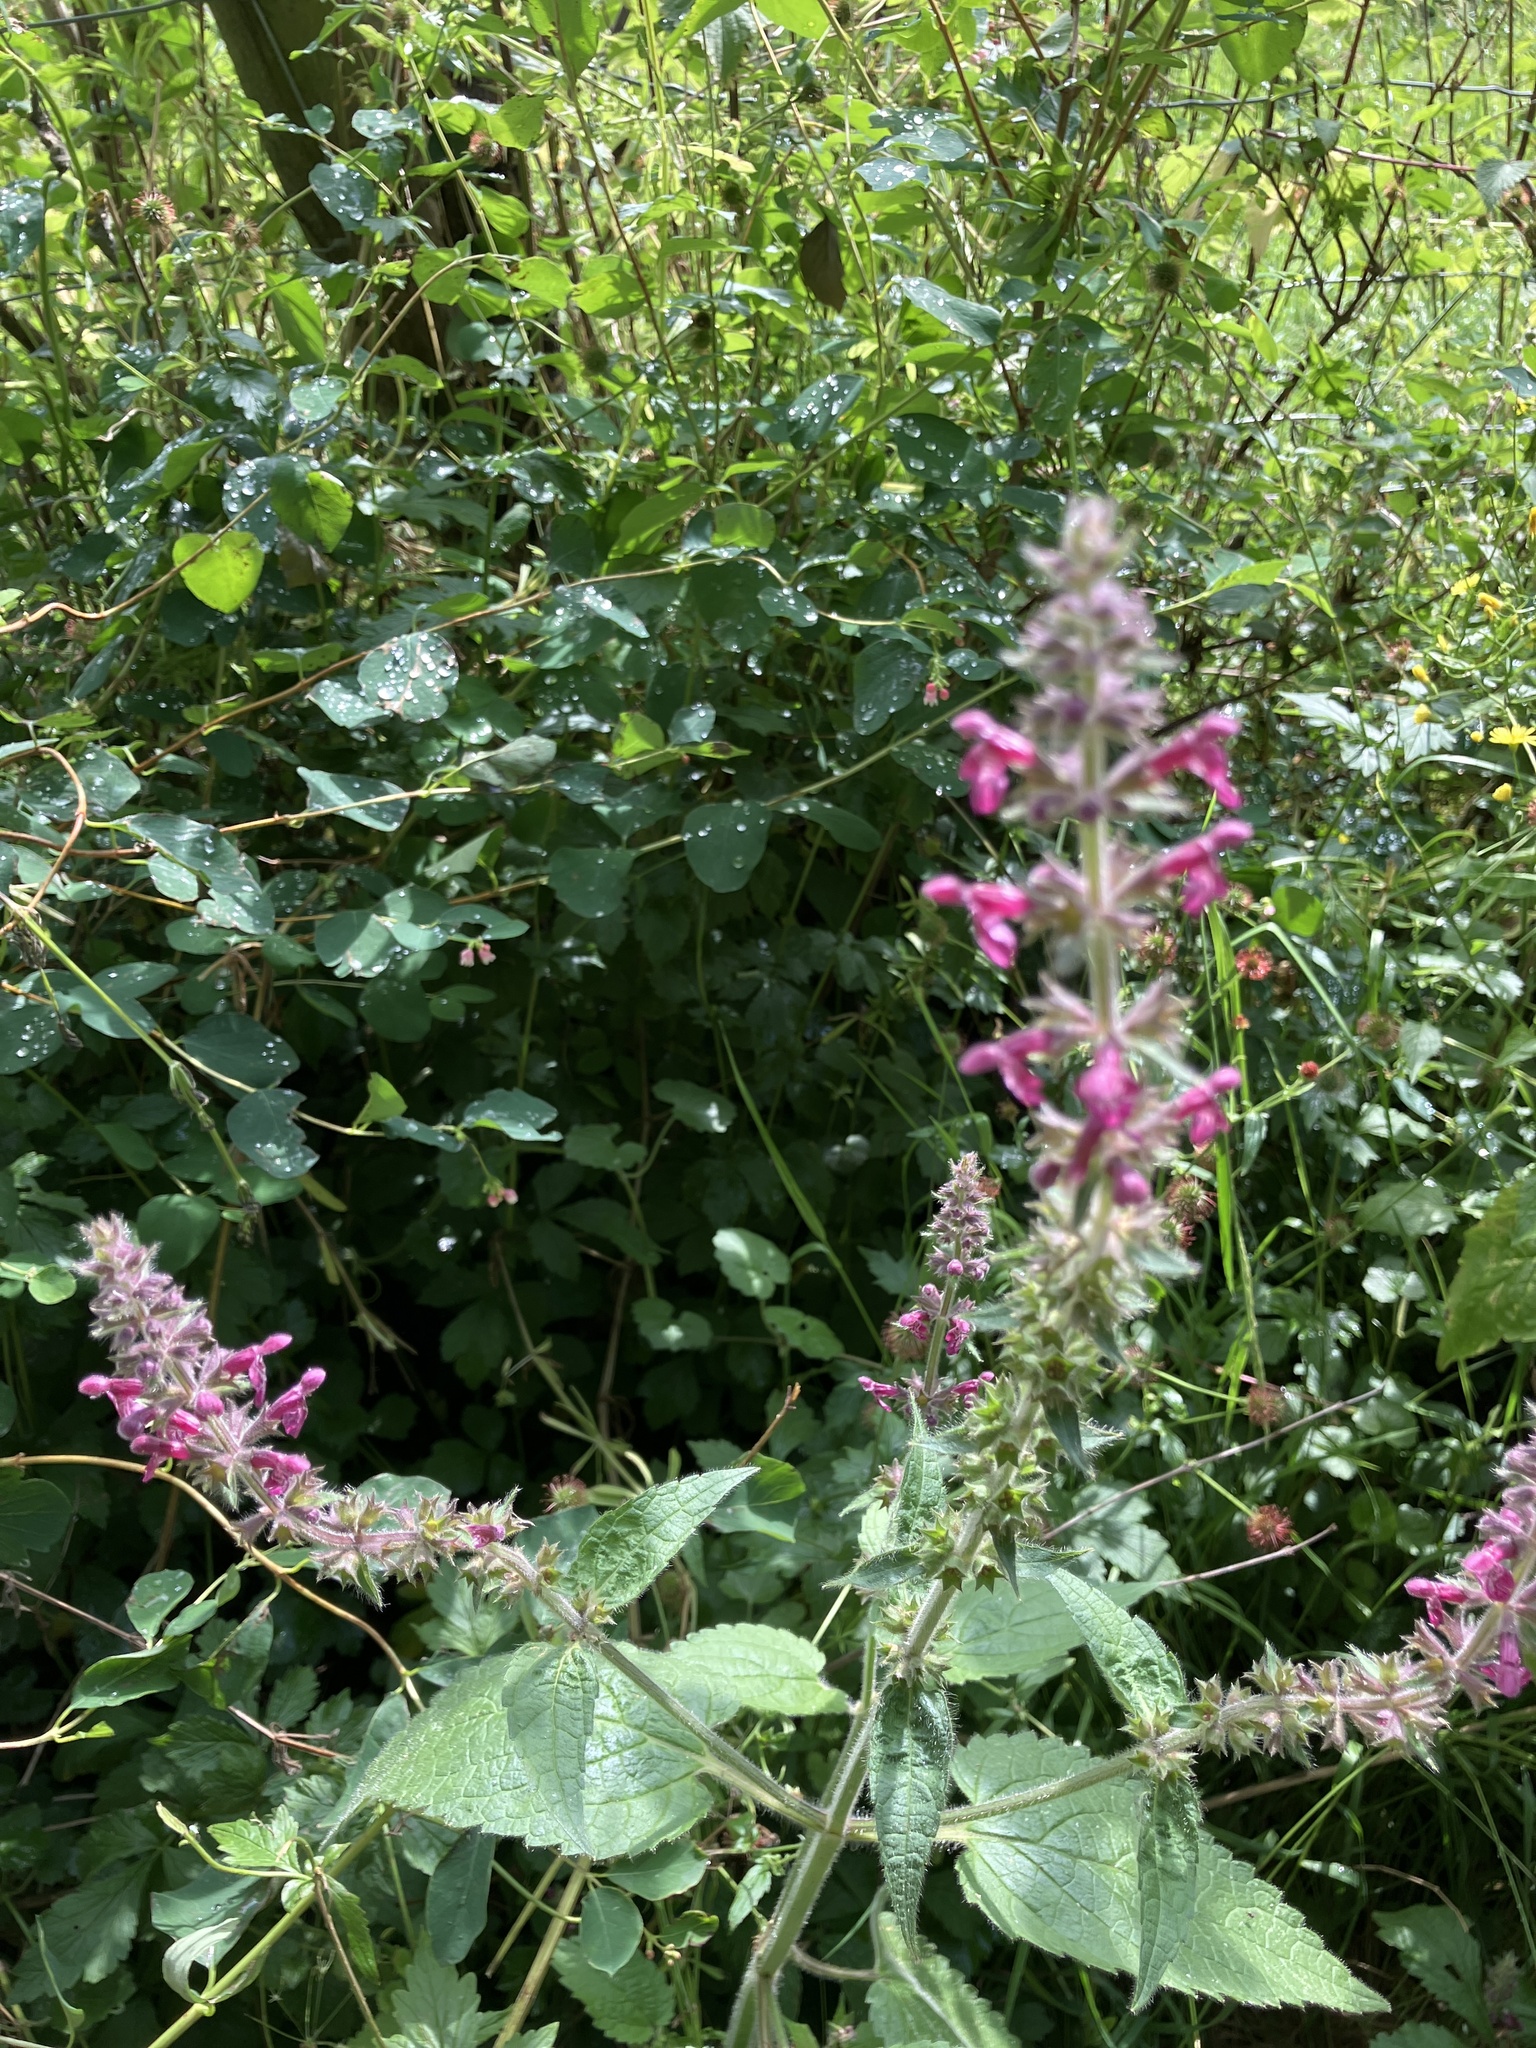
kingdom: Plantae
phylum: Tracheophyta
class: Magnoliopsida
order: Lamiales
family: Lamiaceae
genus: Stachys
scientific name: Stachys sylvatica
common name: Hedge woundwort
